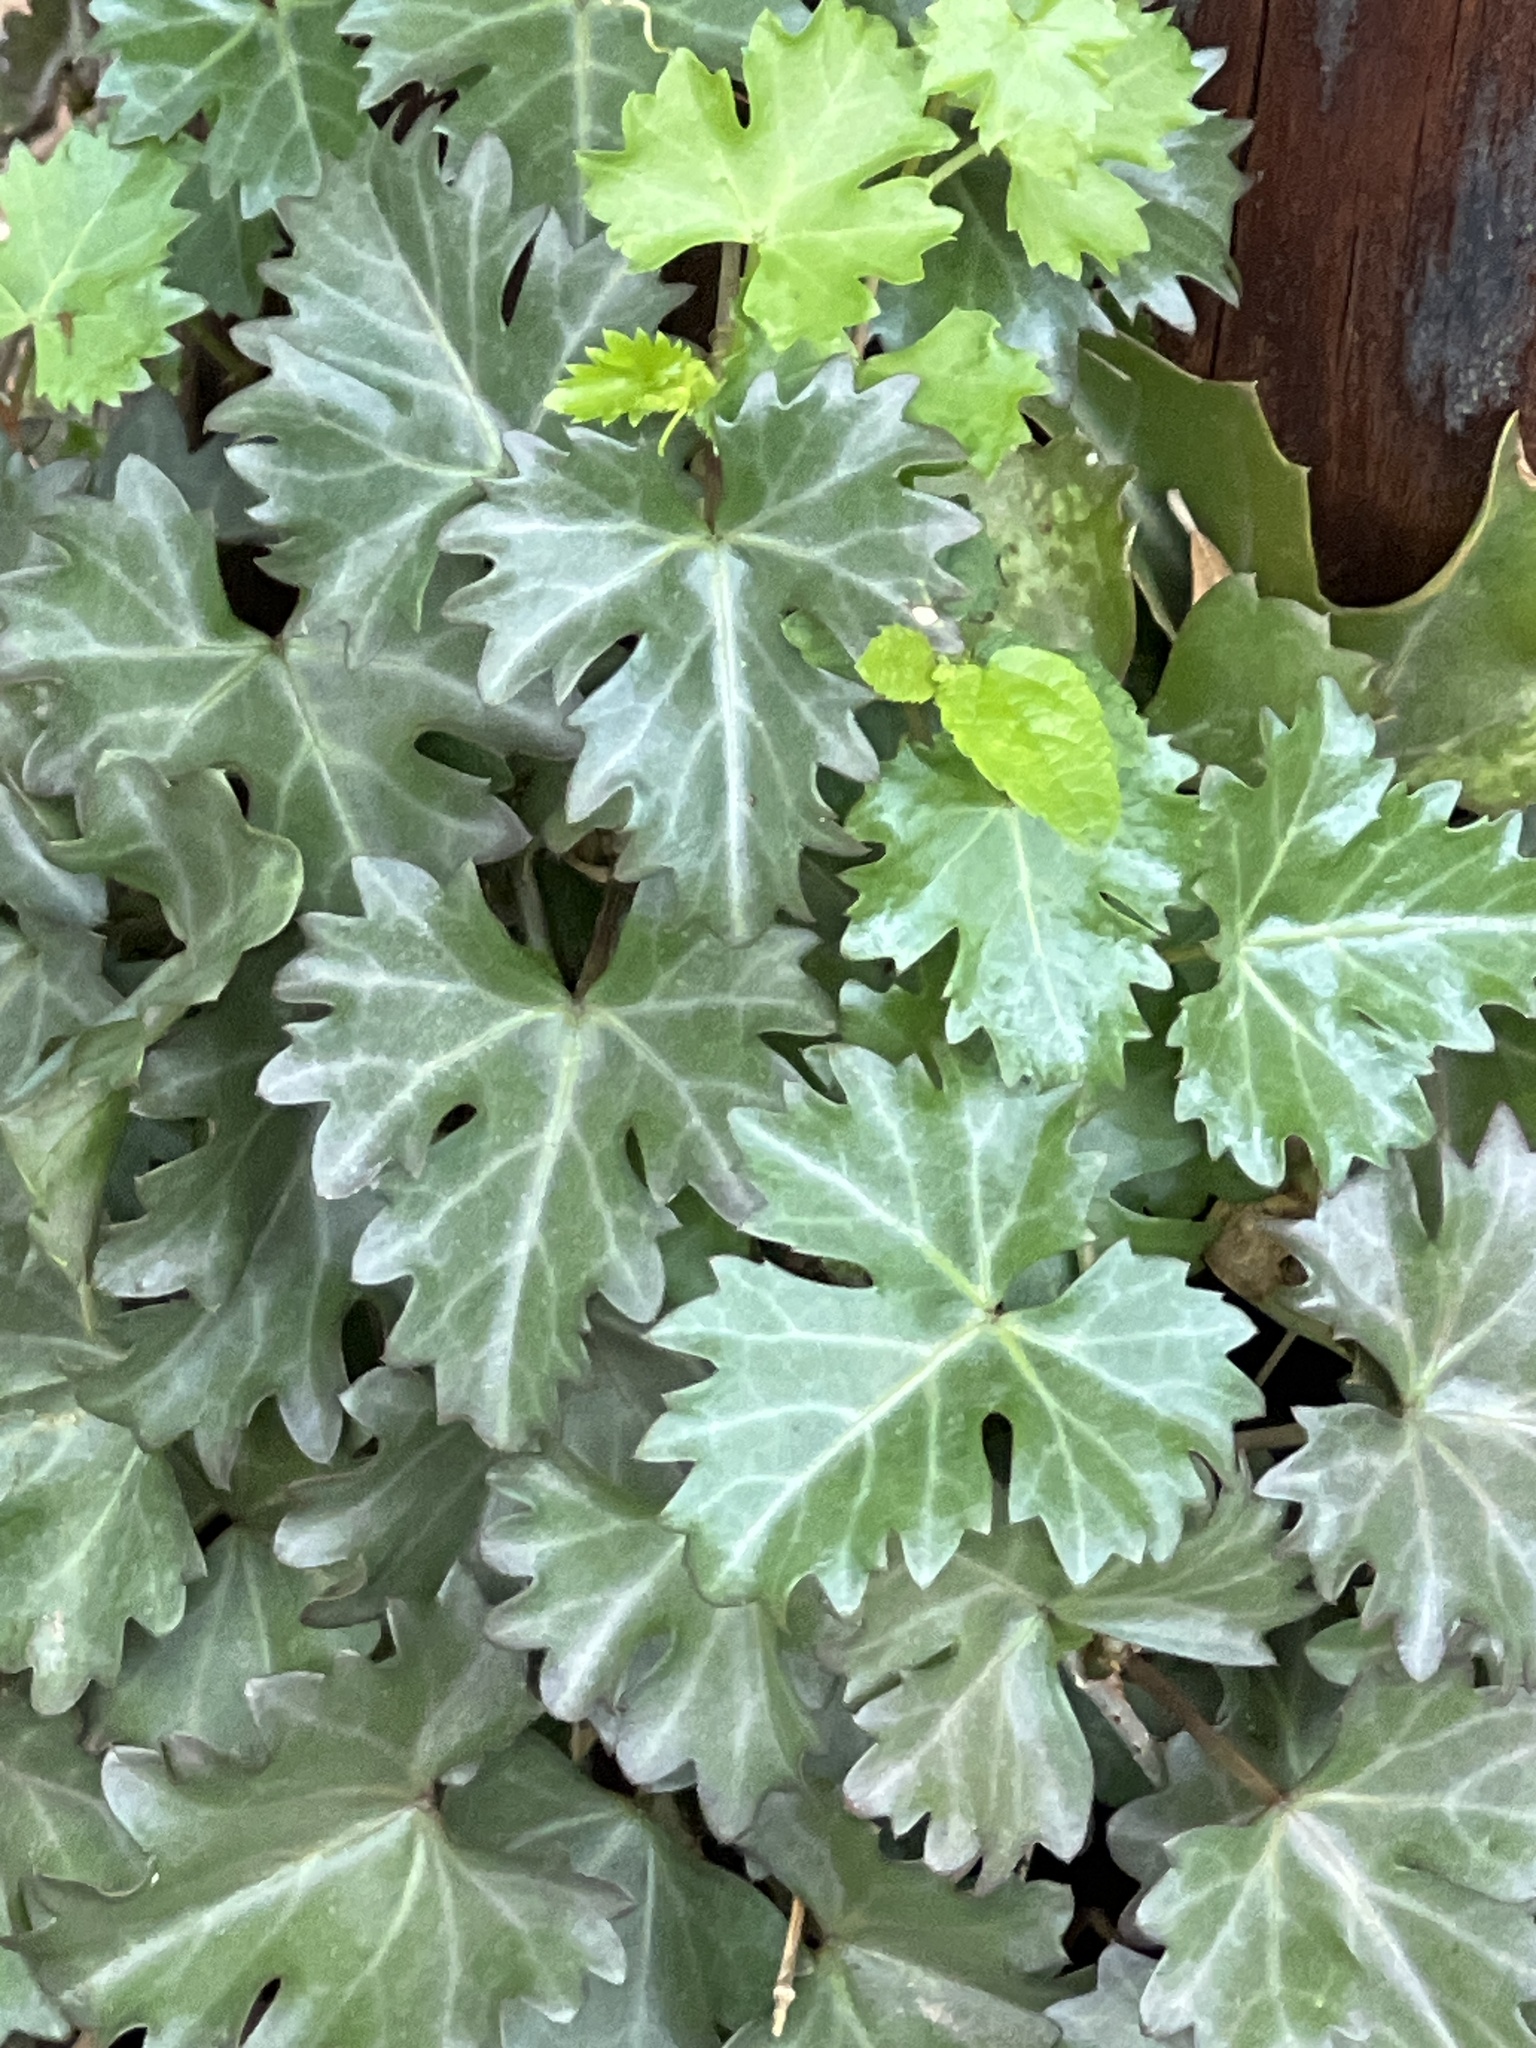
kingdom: Plantae
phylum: Tracheophyta
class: Magnoliopsida
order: Vitales
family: Vitaceae
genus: Cissus
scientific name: Cissus trifoliata
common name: Vine-sorrel
